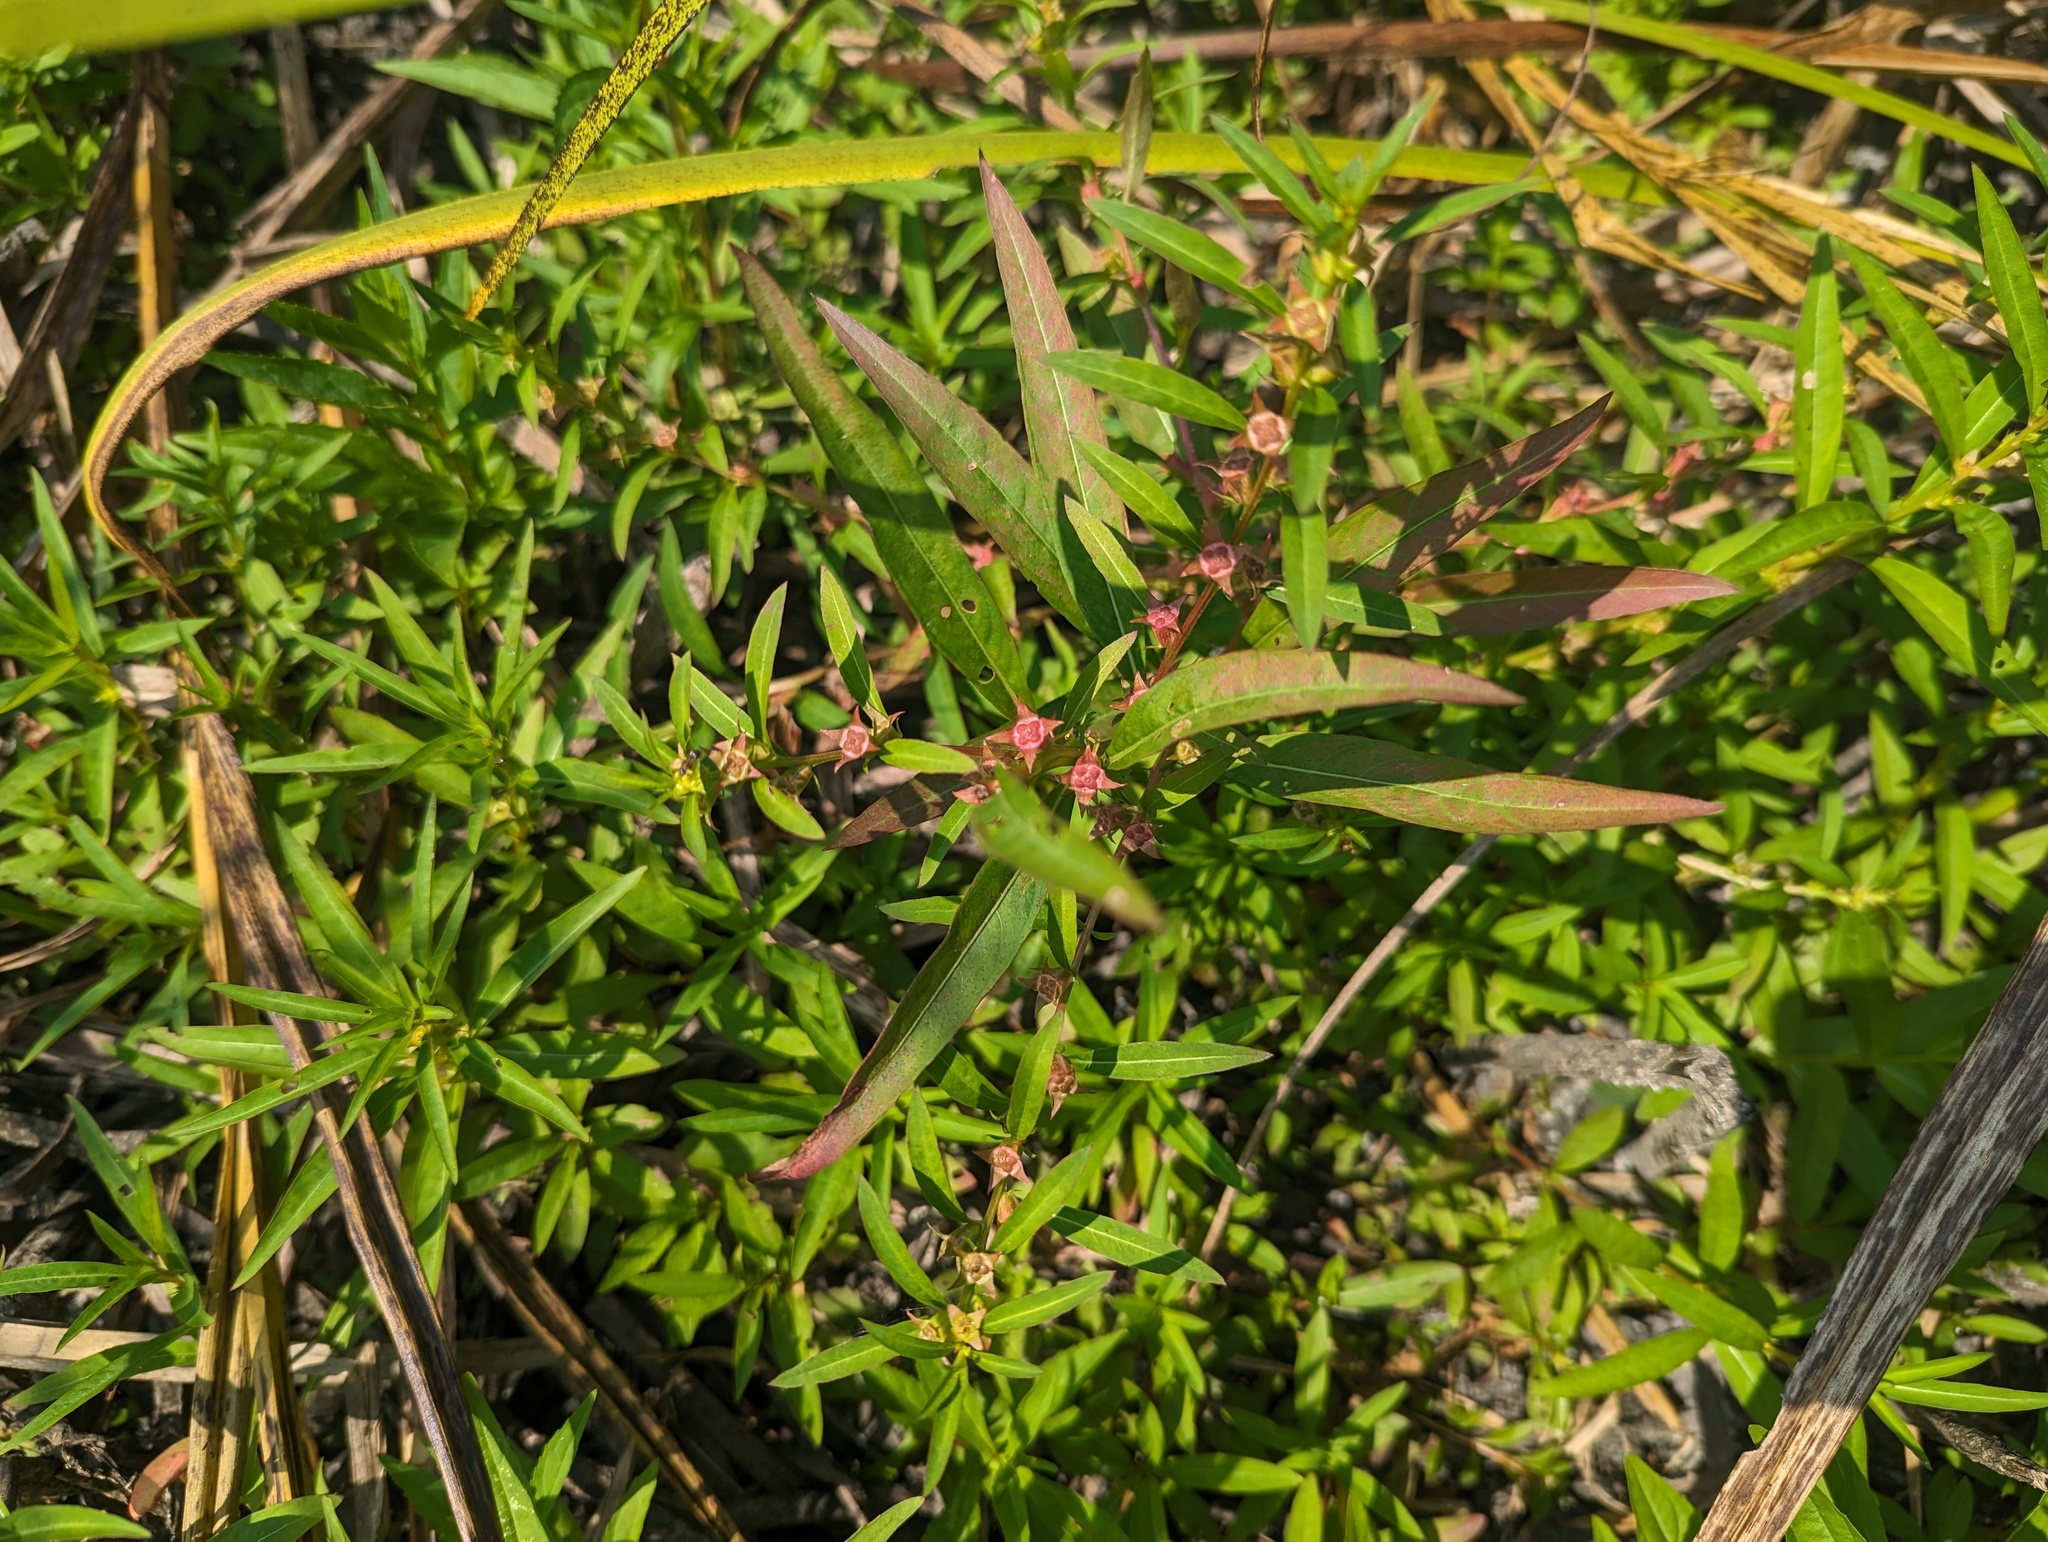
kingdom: Plantae
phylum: Tracheophyta
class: Magnoliopsida
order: Myrtales
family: Onagraceae
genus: Ludwigia
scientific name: Ludwigia polycarpa
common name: False loosestrife
